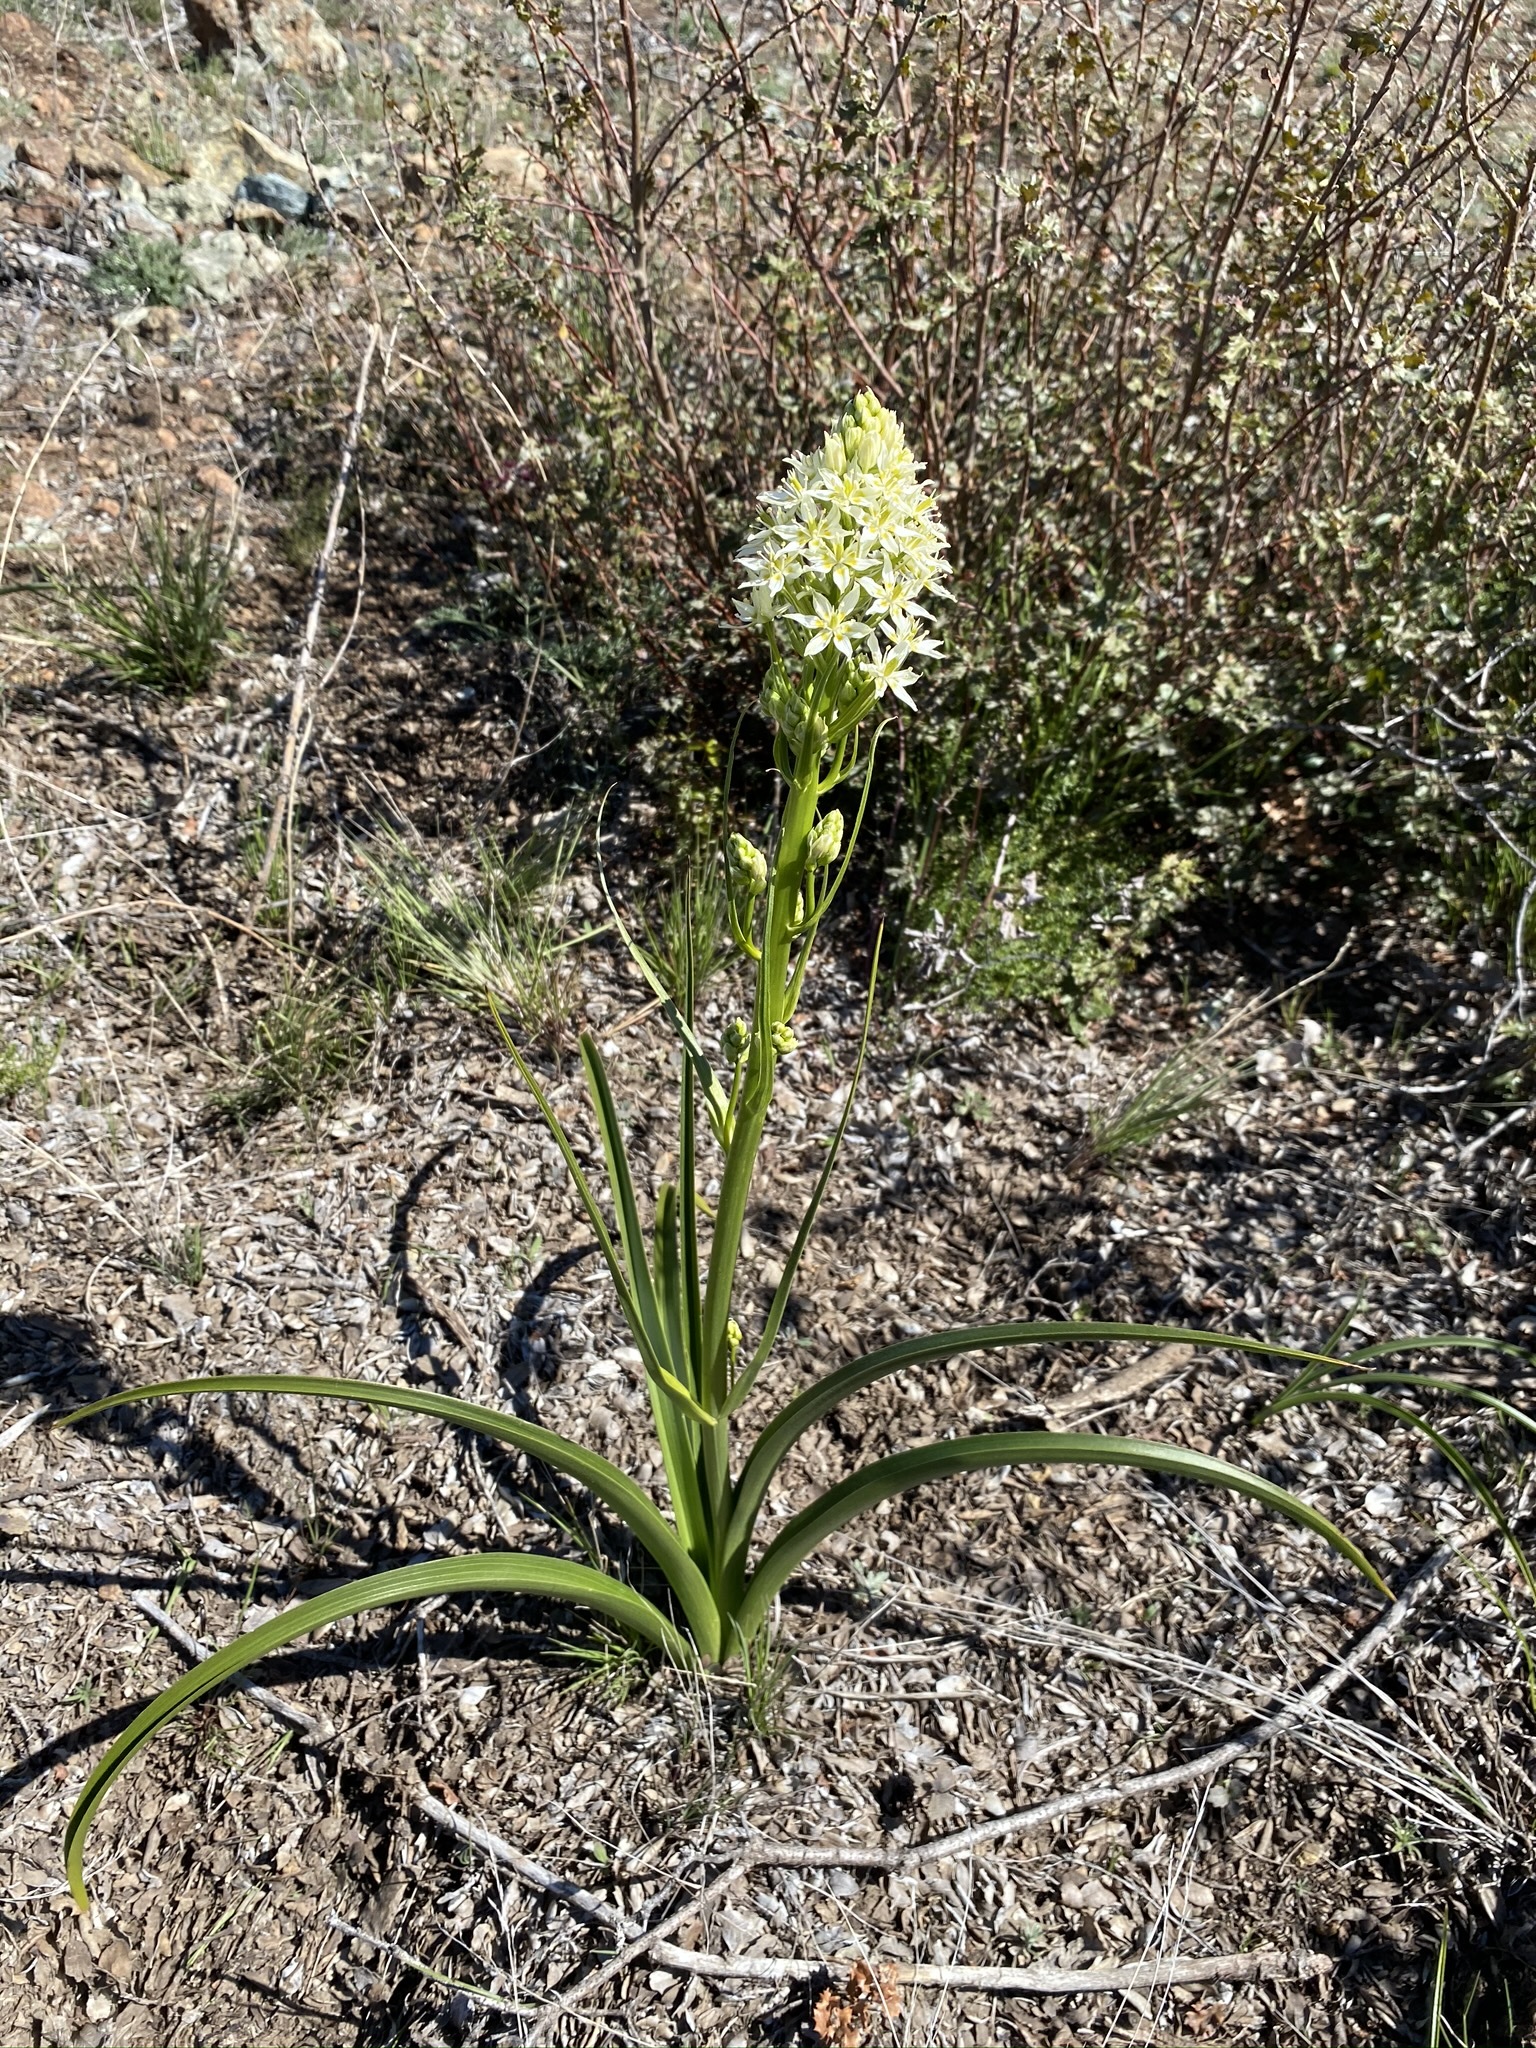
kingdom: Plantae
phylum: Tracheophyta
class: Liliopsida
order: Liliales
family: Melanthiaceae
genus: Toxicoscordion
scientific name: Toxicoscordion fremontii
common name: Fremont's death camas
